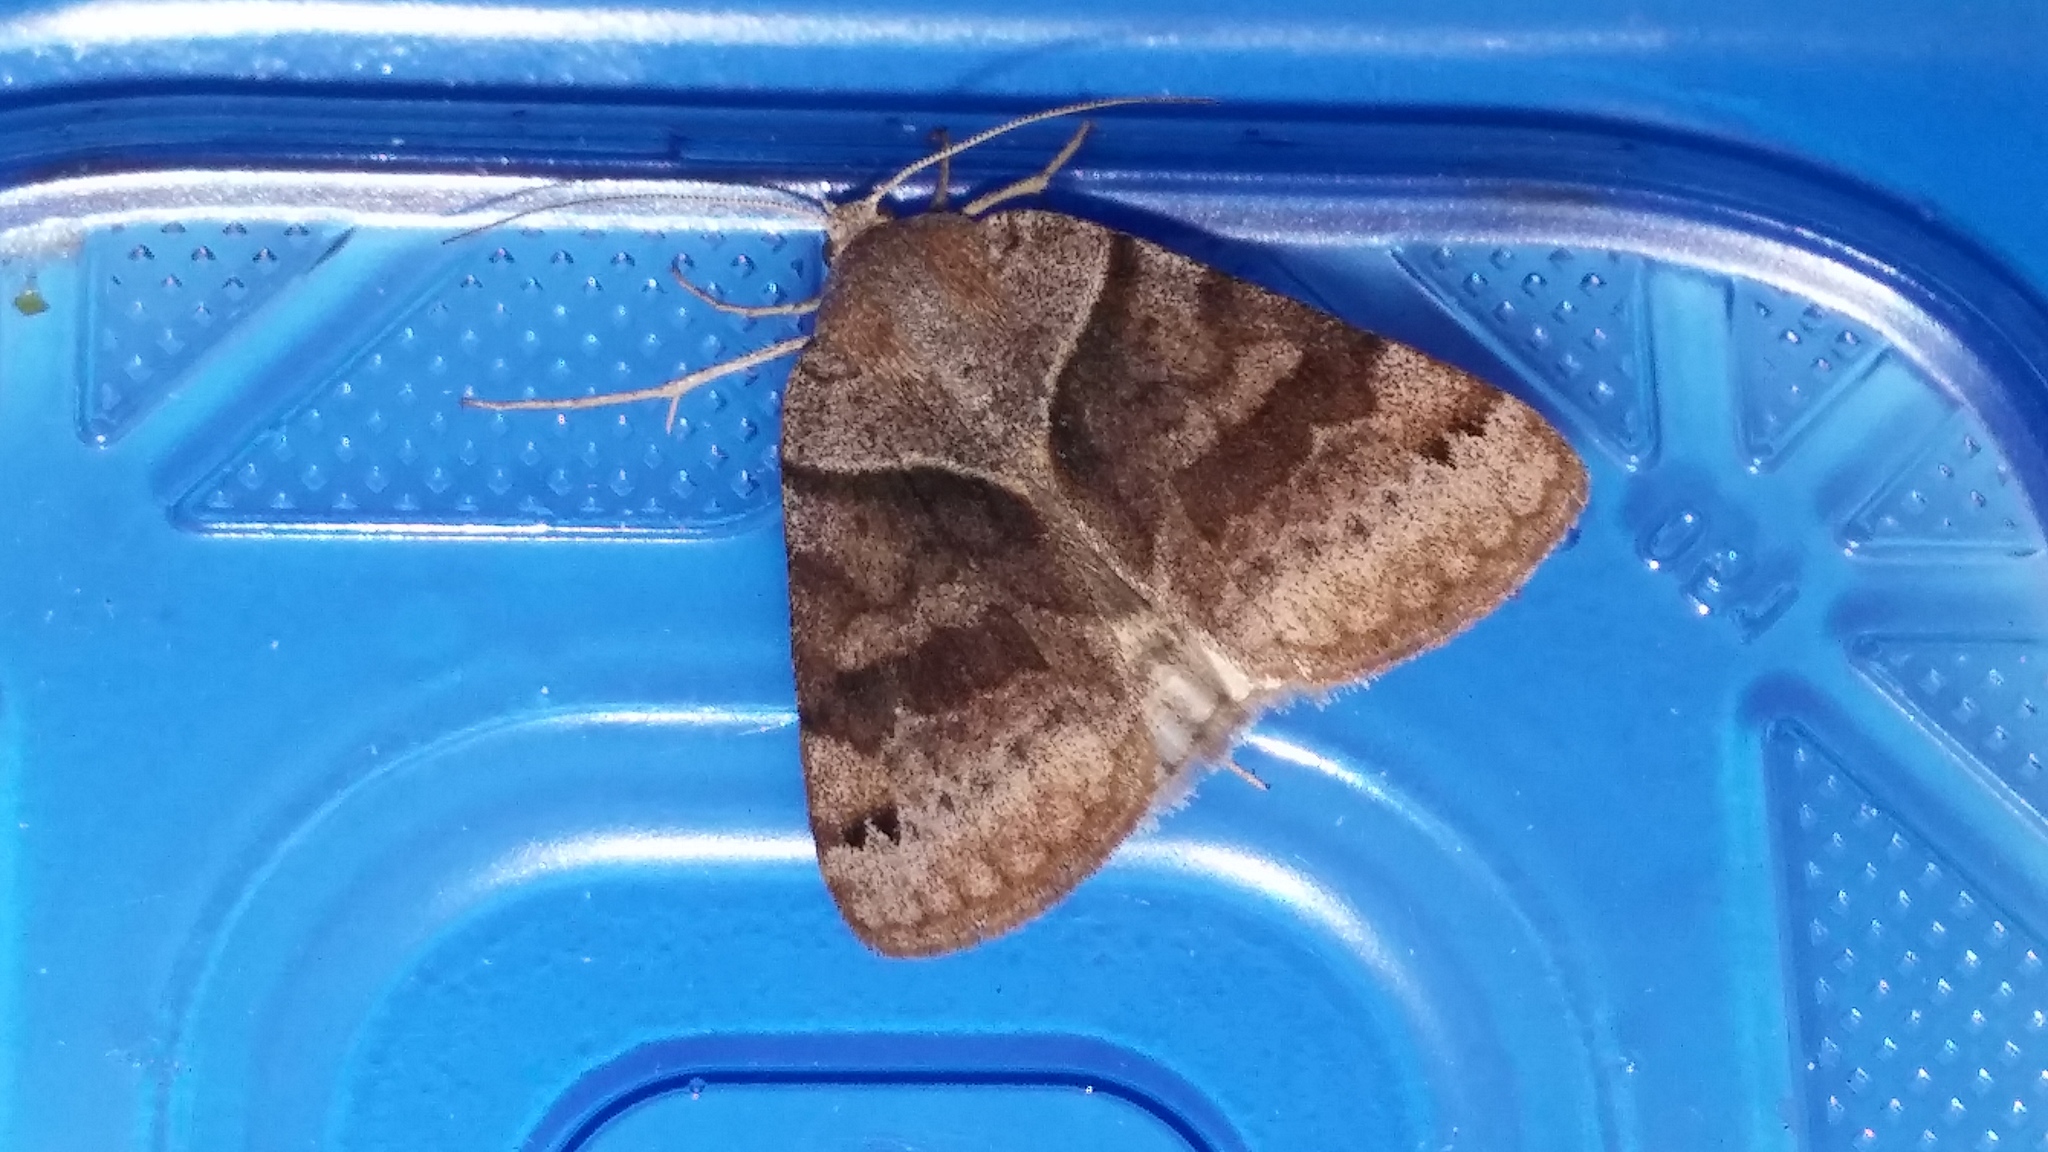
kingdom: Animalia
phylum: Arthropoda
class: Insecta
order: Lepidoptera
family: Erebidae
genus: Caenurgina
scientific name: Caenurgina erechtea
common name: Forage looper moth
